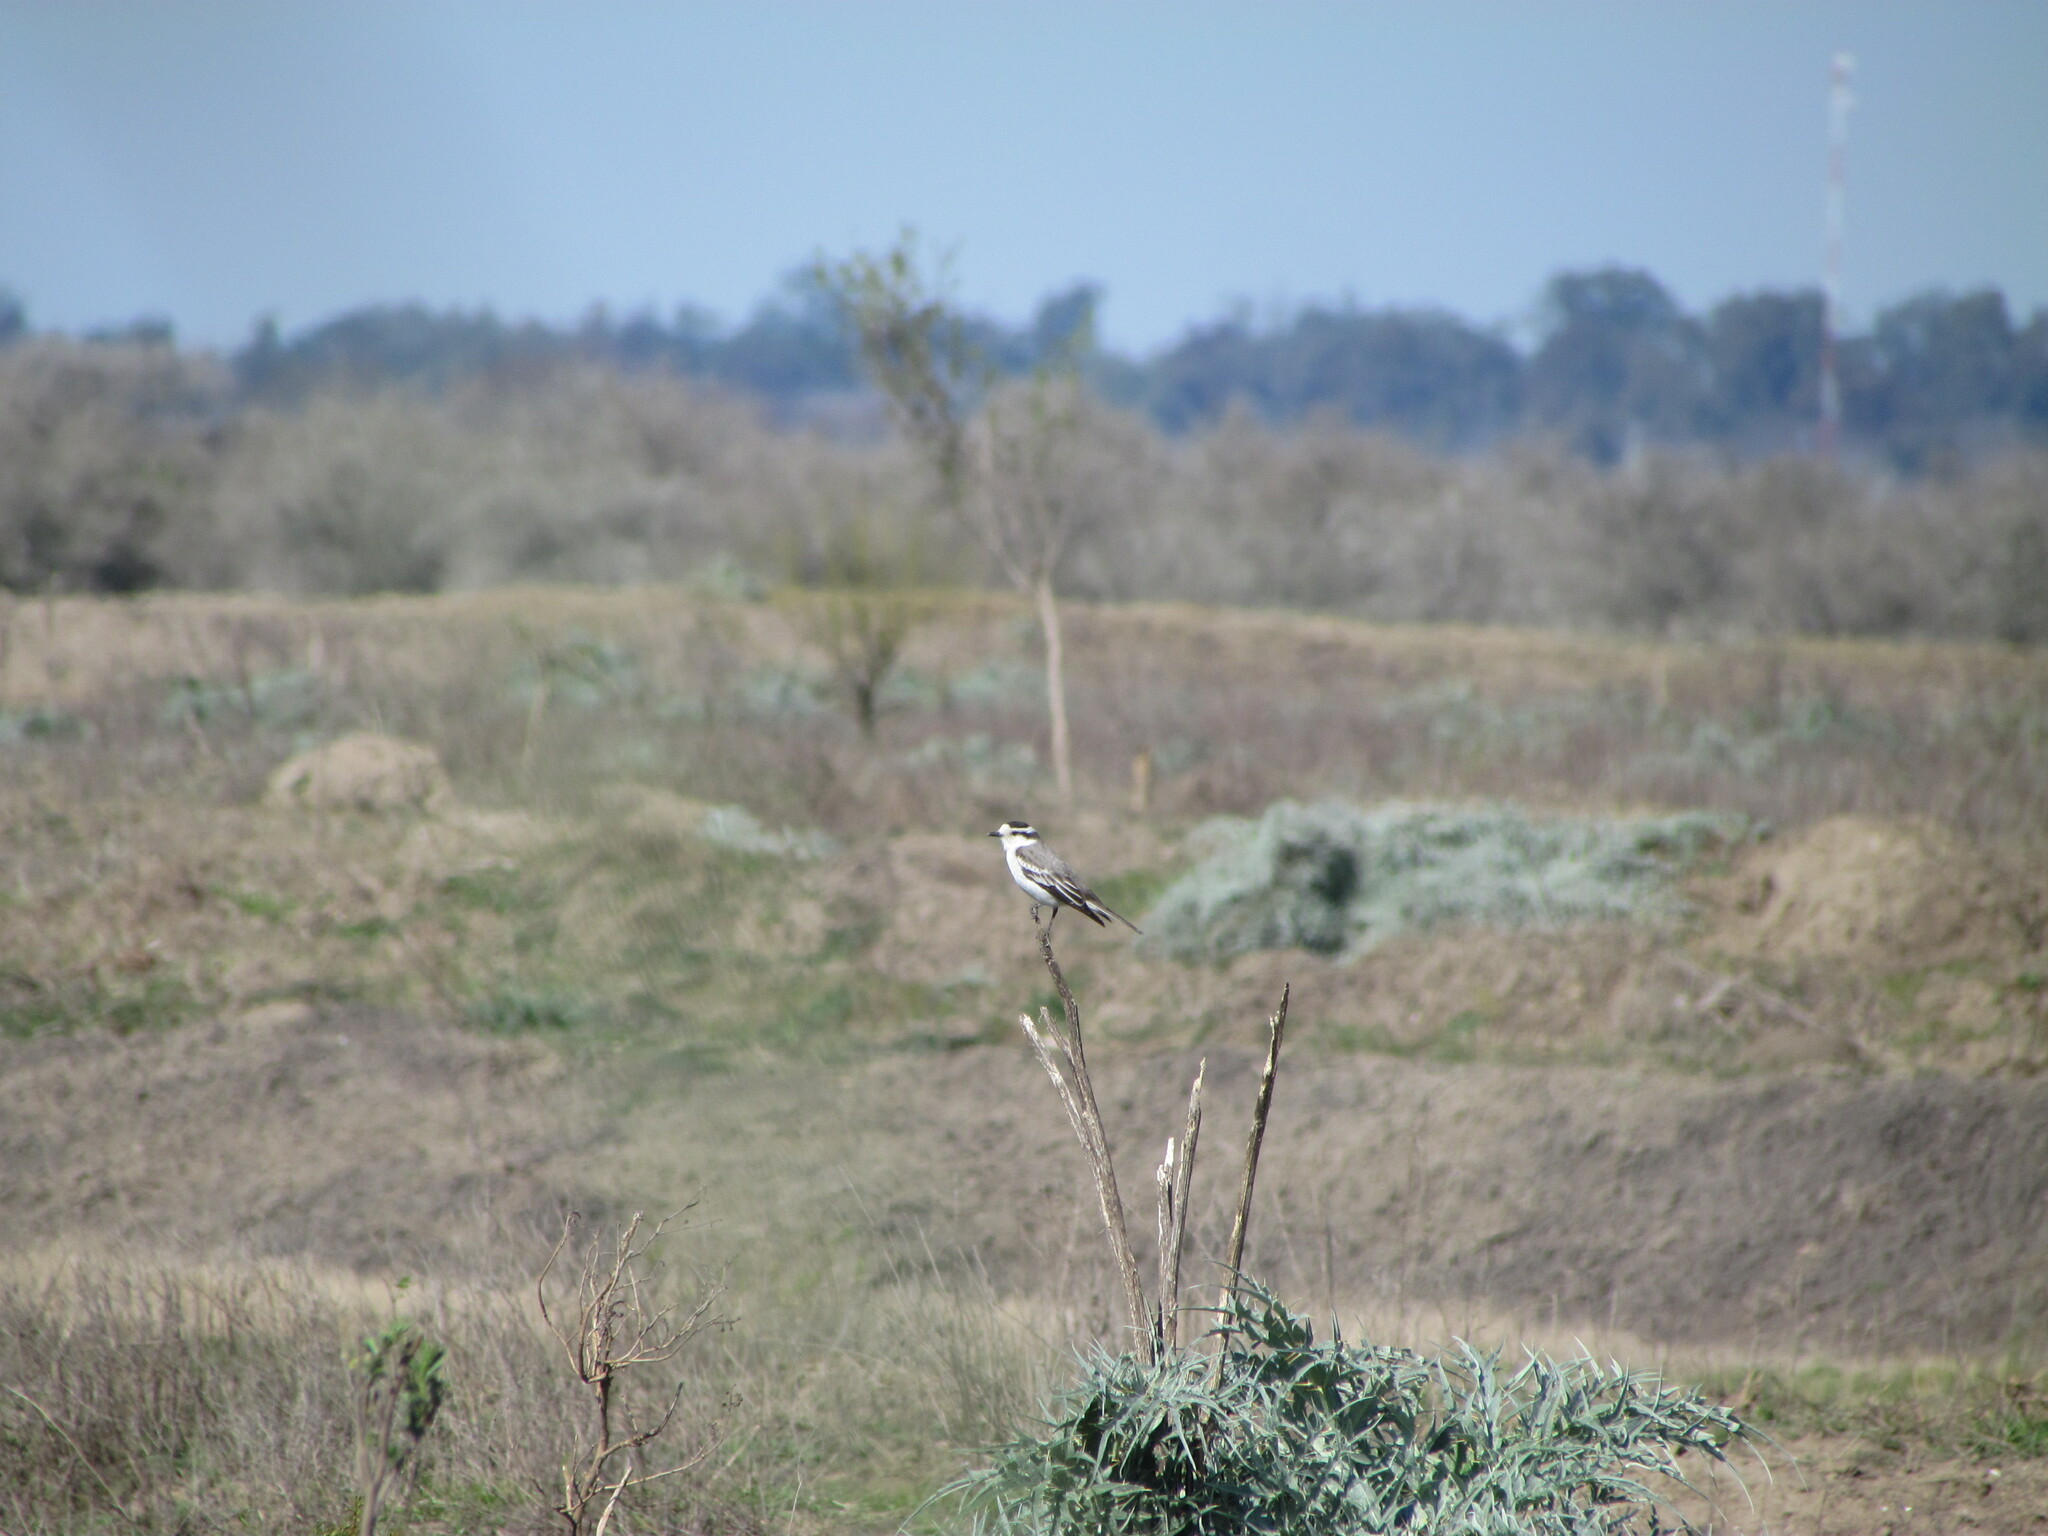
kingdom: Animalia
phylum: Chordata
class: Aves
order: Passeriformes
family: Tyrannidae
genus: Xolmis
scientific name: Xolmis coronatus
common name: Black-crowned monjita
